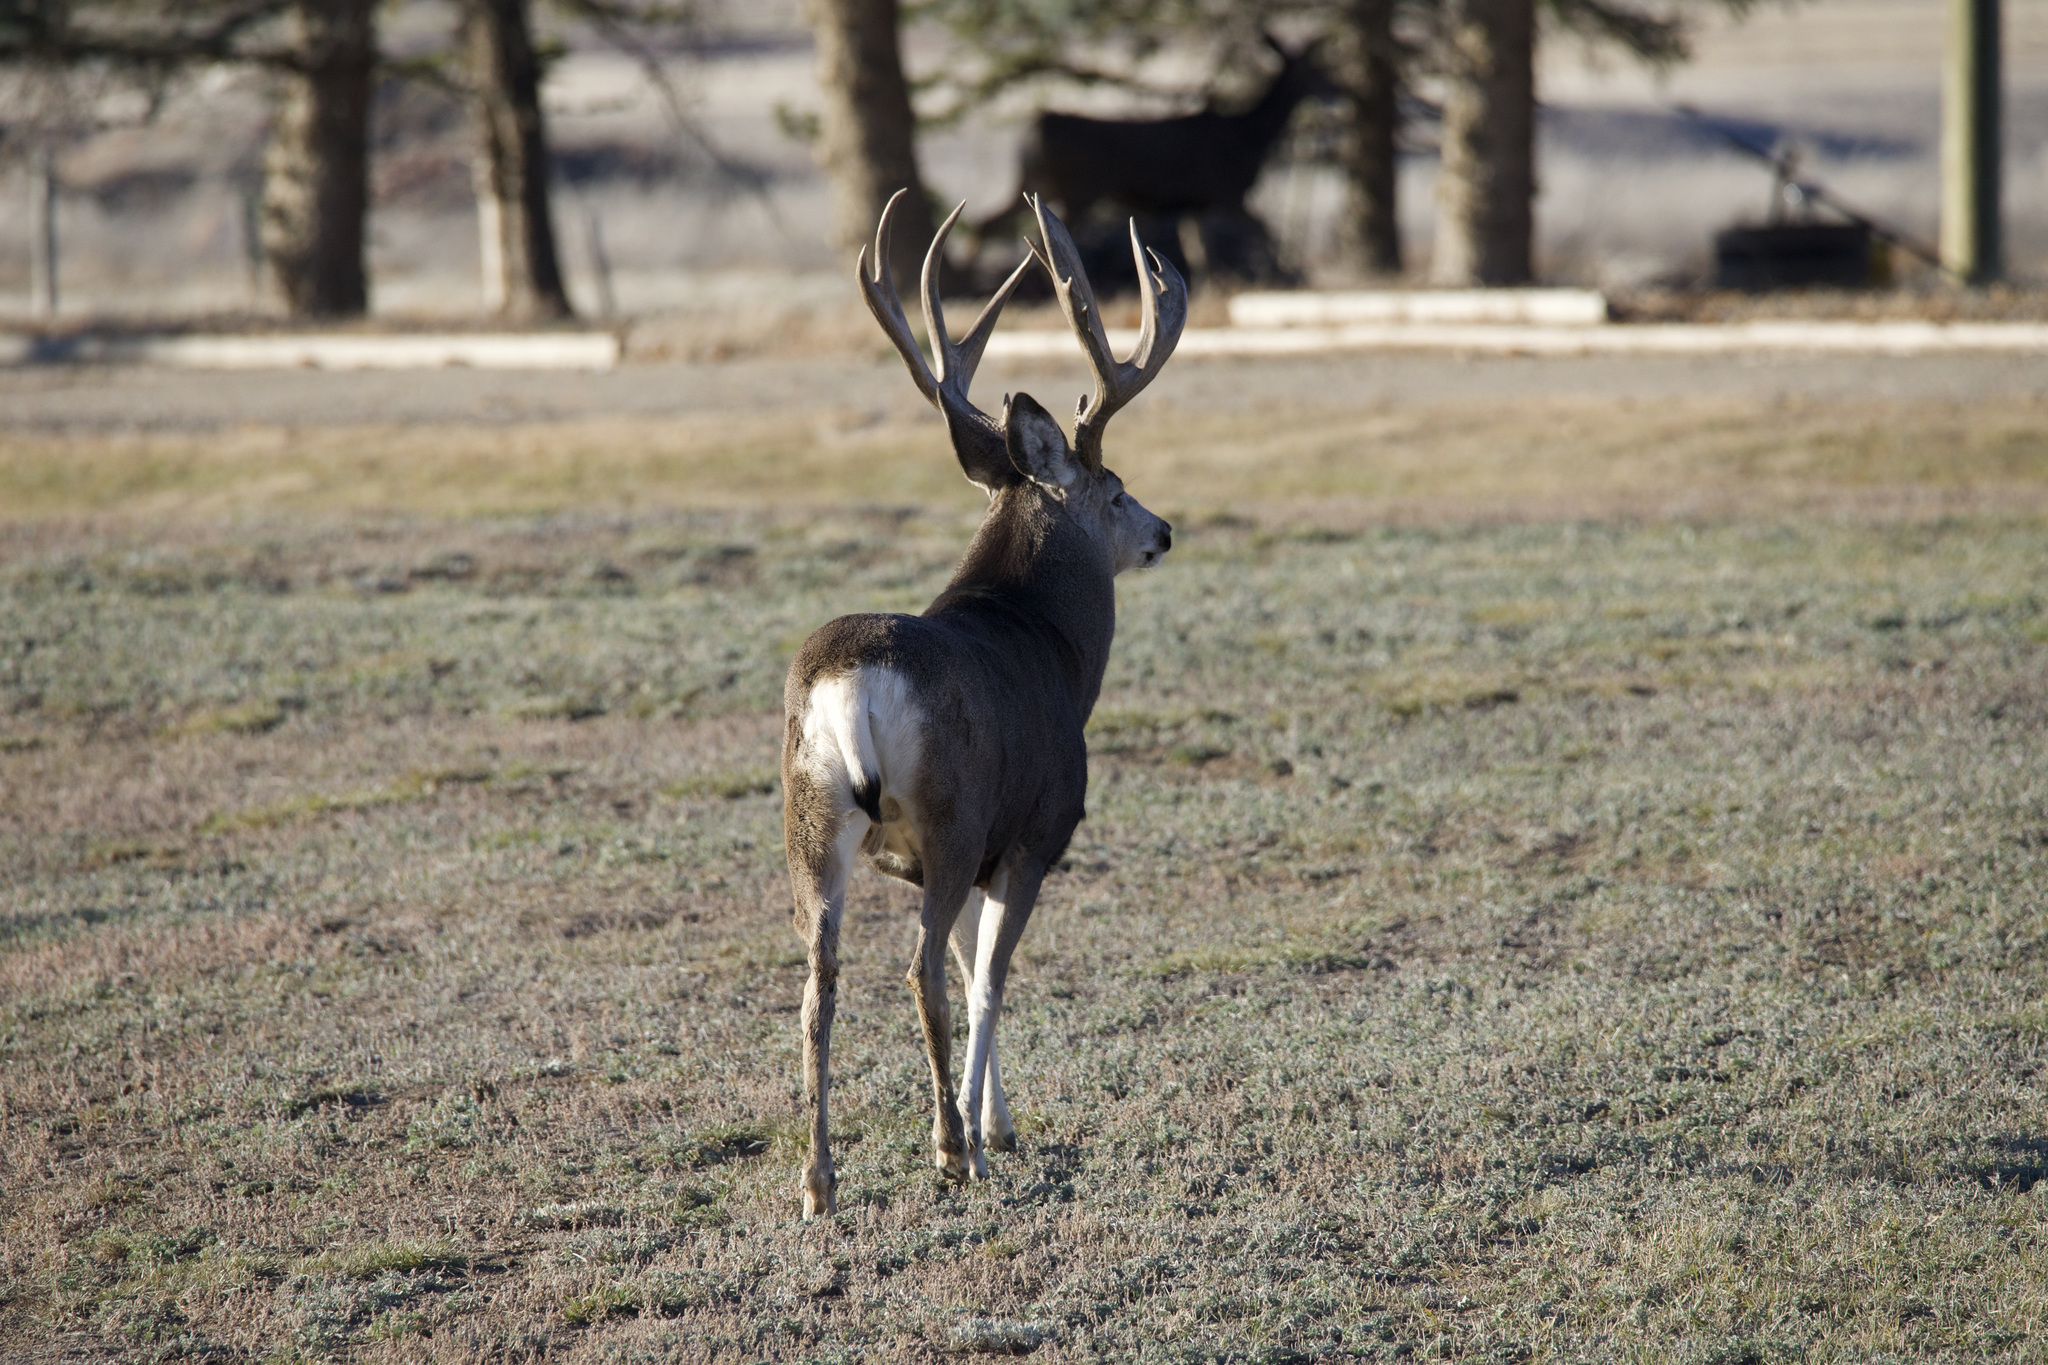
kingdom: Animalia
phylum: Chordata
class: Mammalia
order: Artiodactyla
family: Cervidae
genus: Odocoileus
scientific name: Odocoileus hemionus
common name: Mule deer
